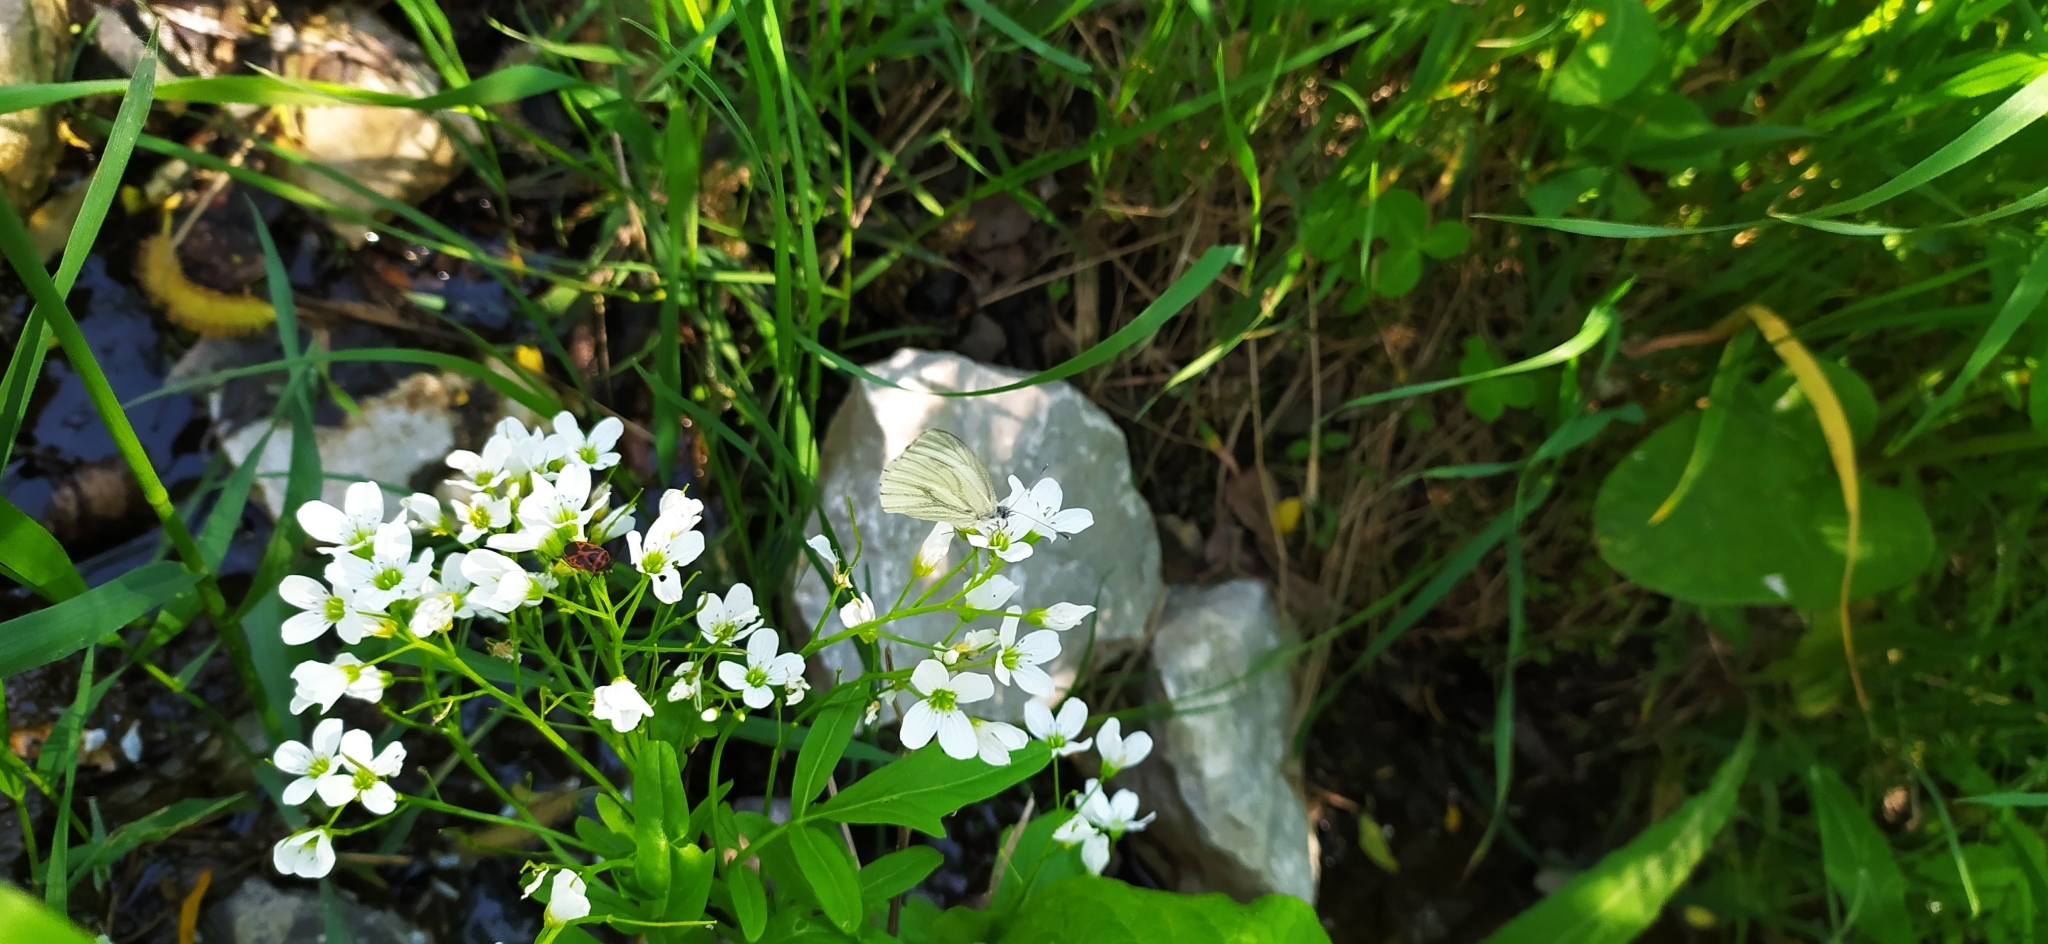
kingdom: Animalia
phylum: Arthropoda
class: Insecta
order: Lepidoptera
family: Pieridae
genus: Pieris
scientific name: Pieris napi
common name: Green-veined white
